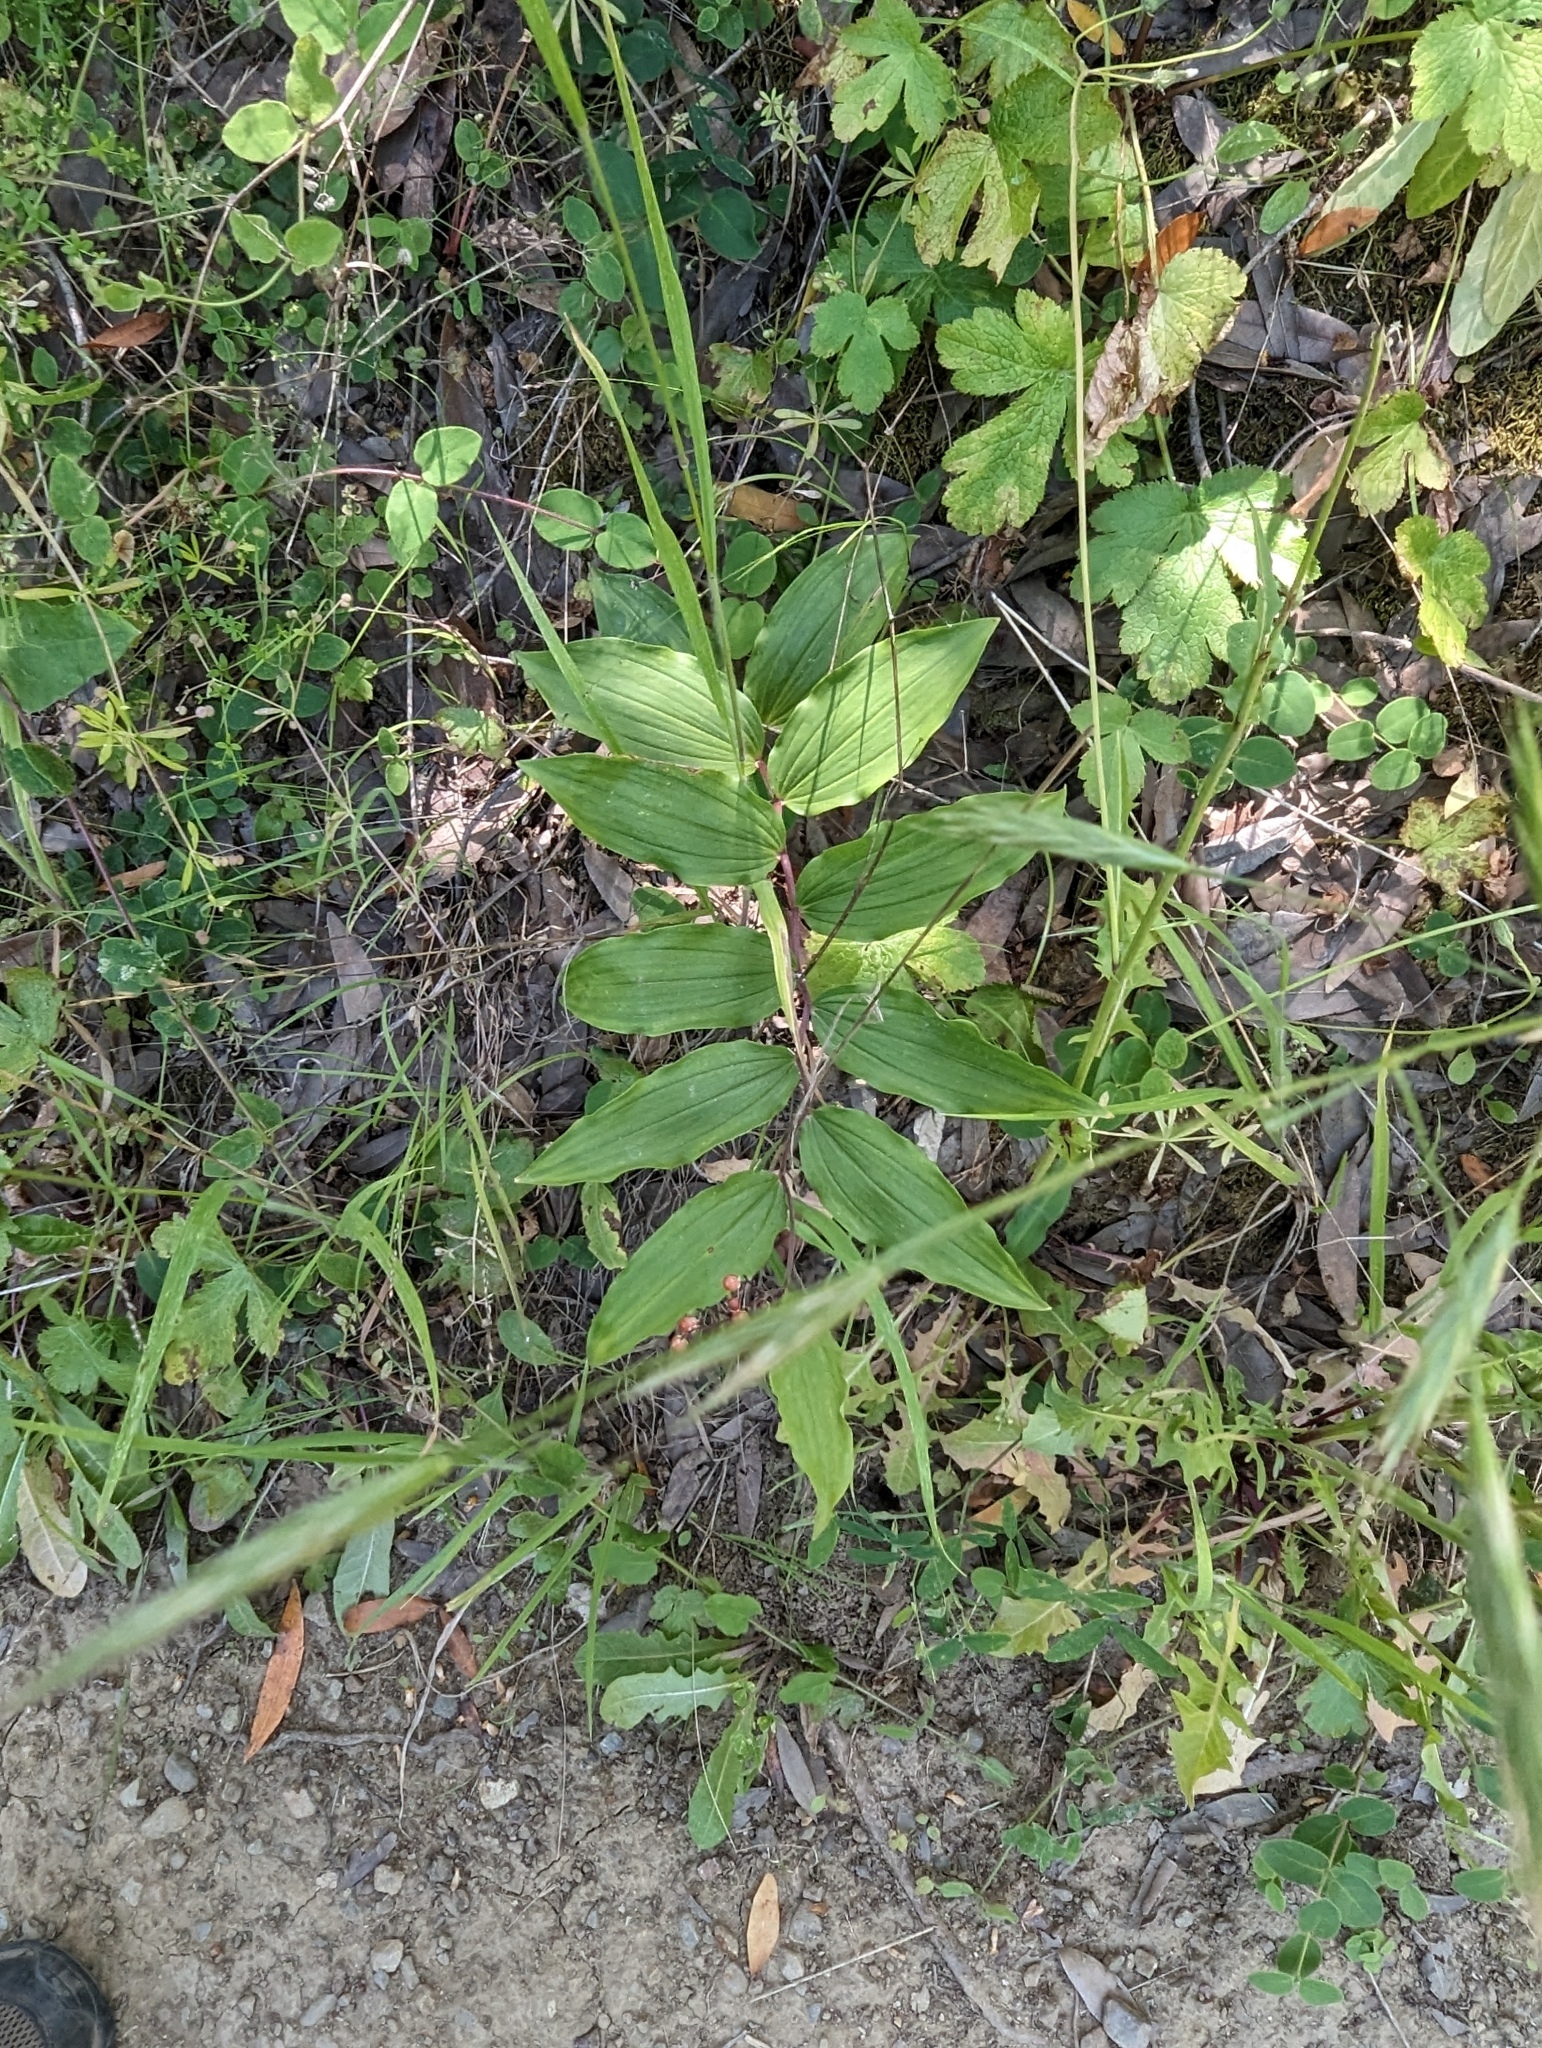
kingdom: Plantae
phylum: Tracheophyta
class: Liliopsida
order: Asparagales
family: Asparagaceae
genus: Maianthemum
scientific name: Maianthemum racemosum
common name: False spikenard
